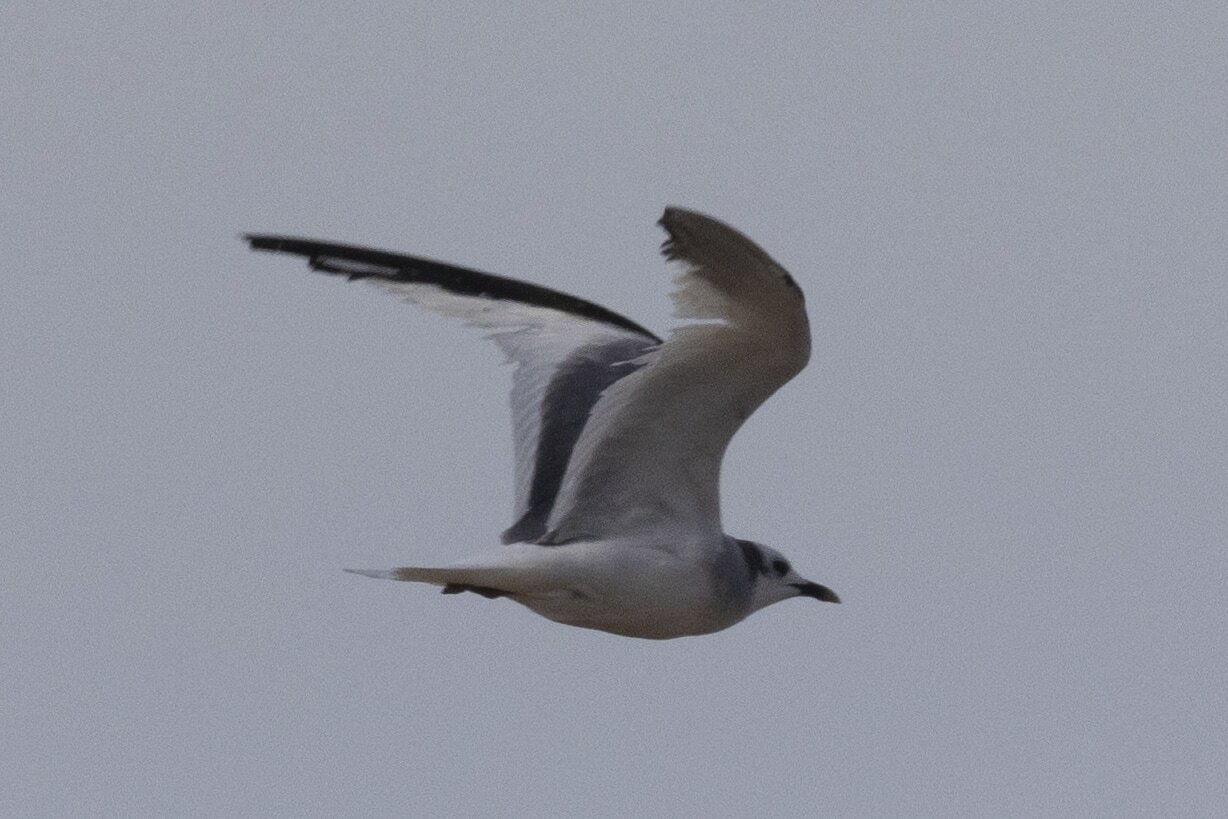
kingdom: Animalia
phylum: Chordata
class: Aves
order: Charadriiformes
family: Laridae
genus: Xema
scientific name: Xema sabini
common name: Sabine's gull
